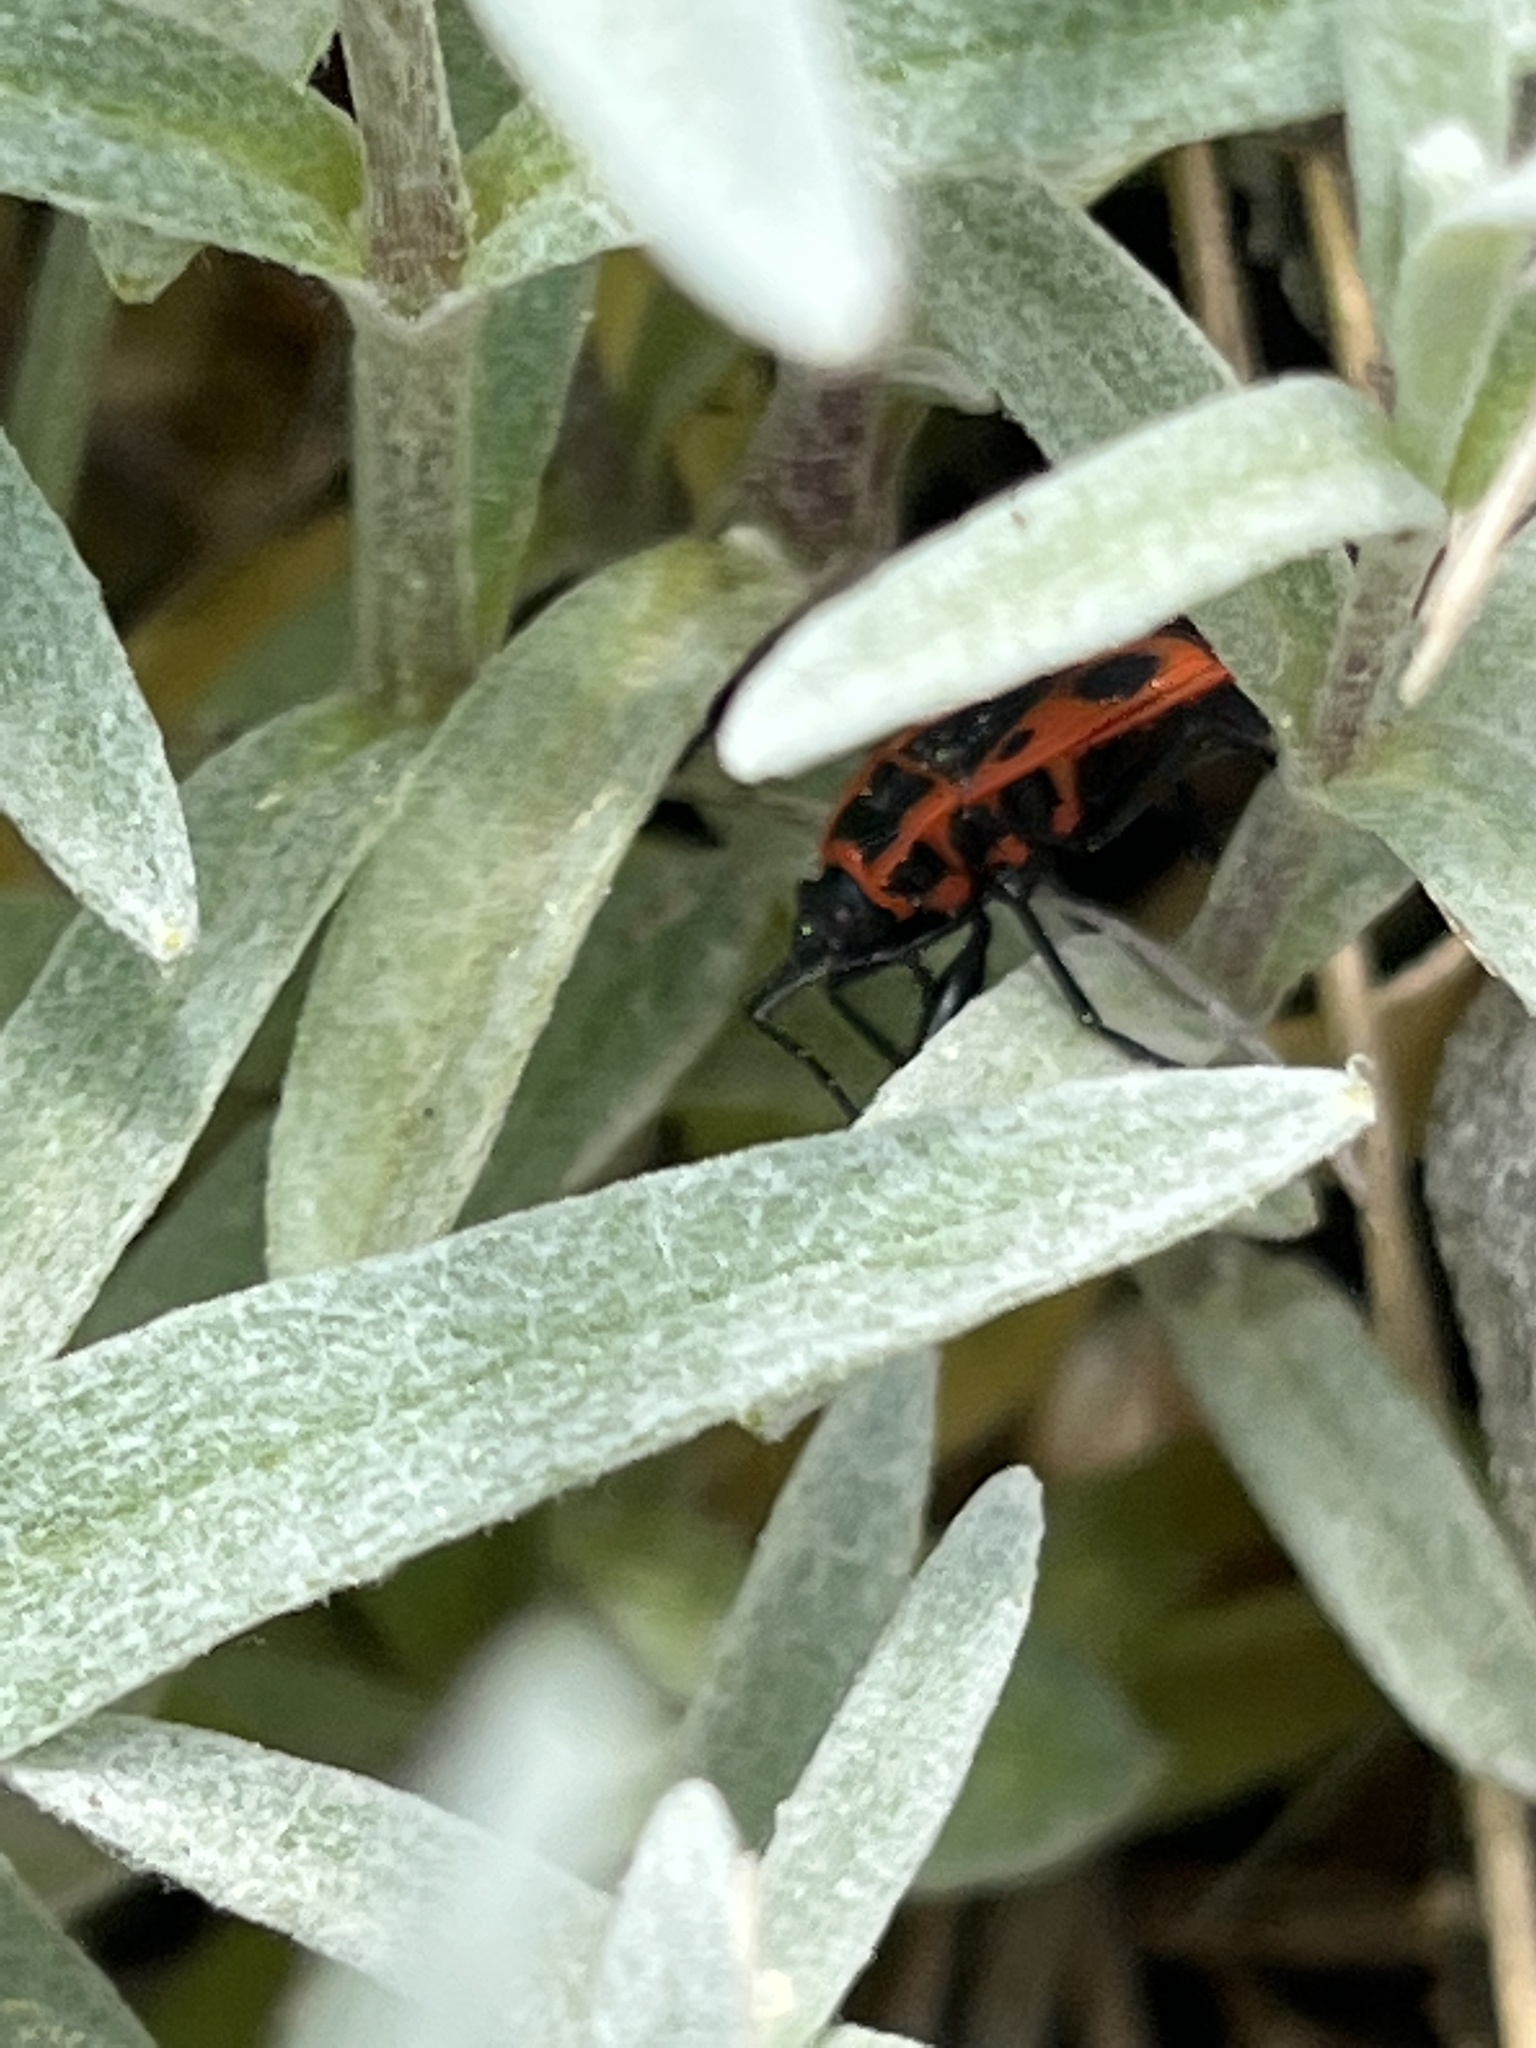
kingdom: Animalia
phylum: Arthropoda
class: Insecta
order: Hemiptera
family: Pyrrhocoridae
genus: Pyrrhocoris
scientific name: Pyrrhocoris apterus
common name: Firebug
